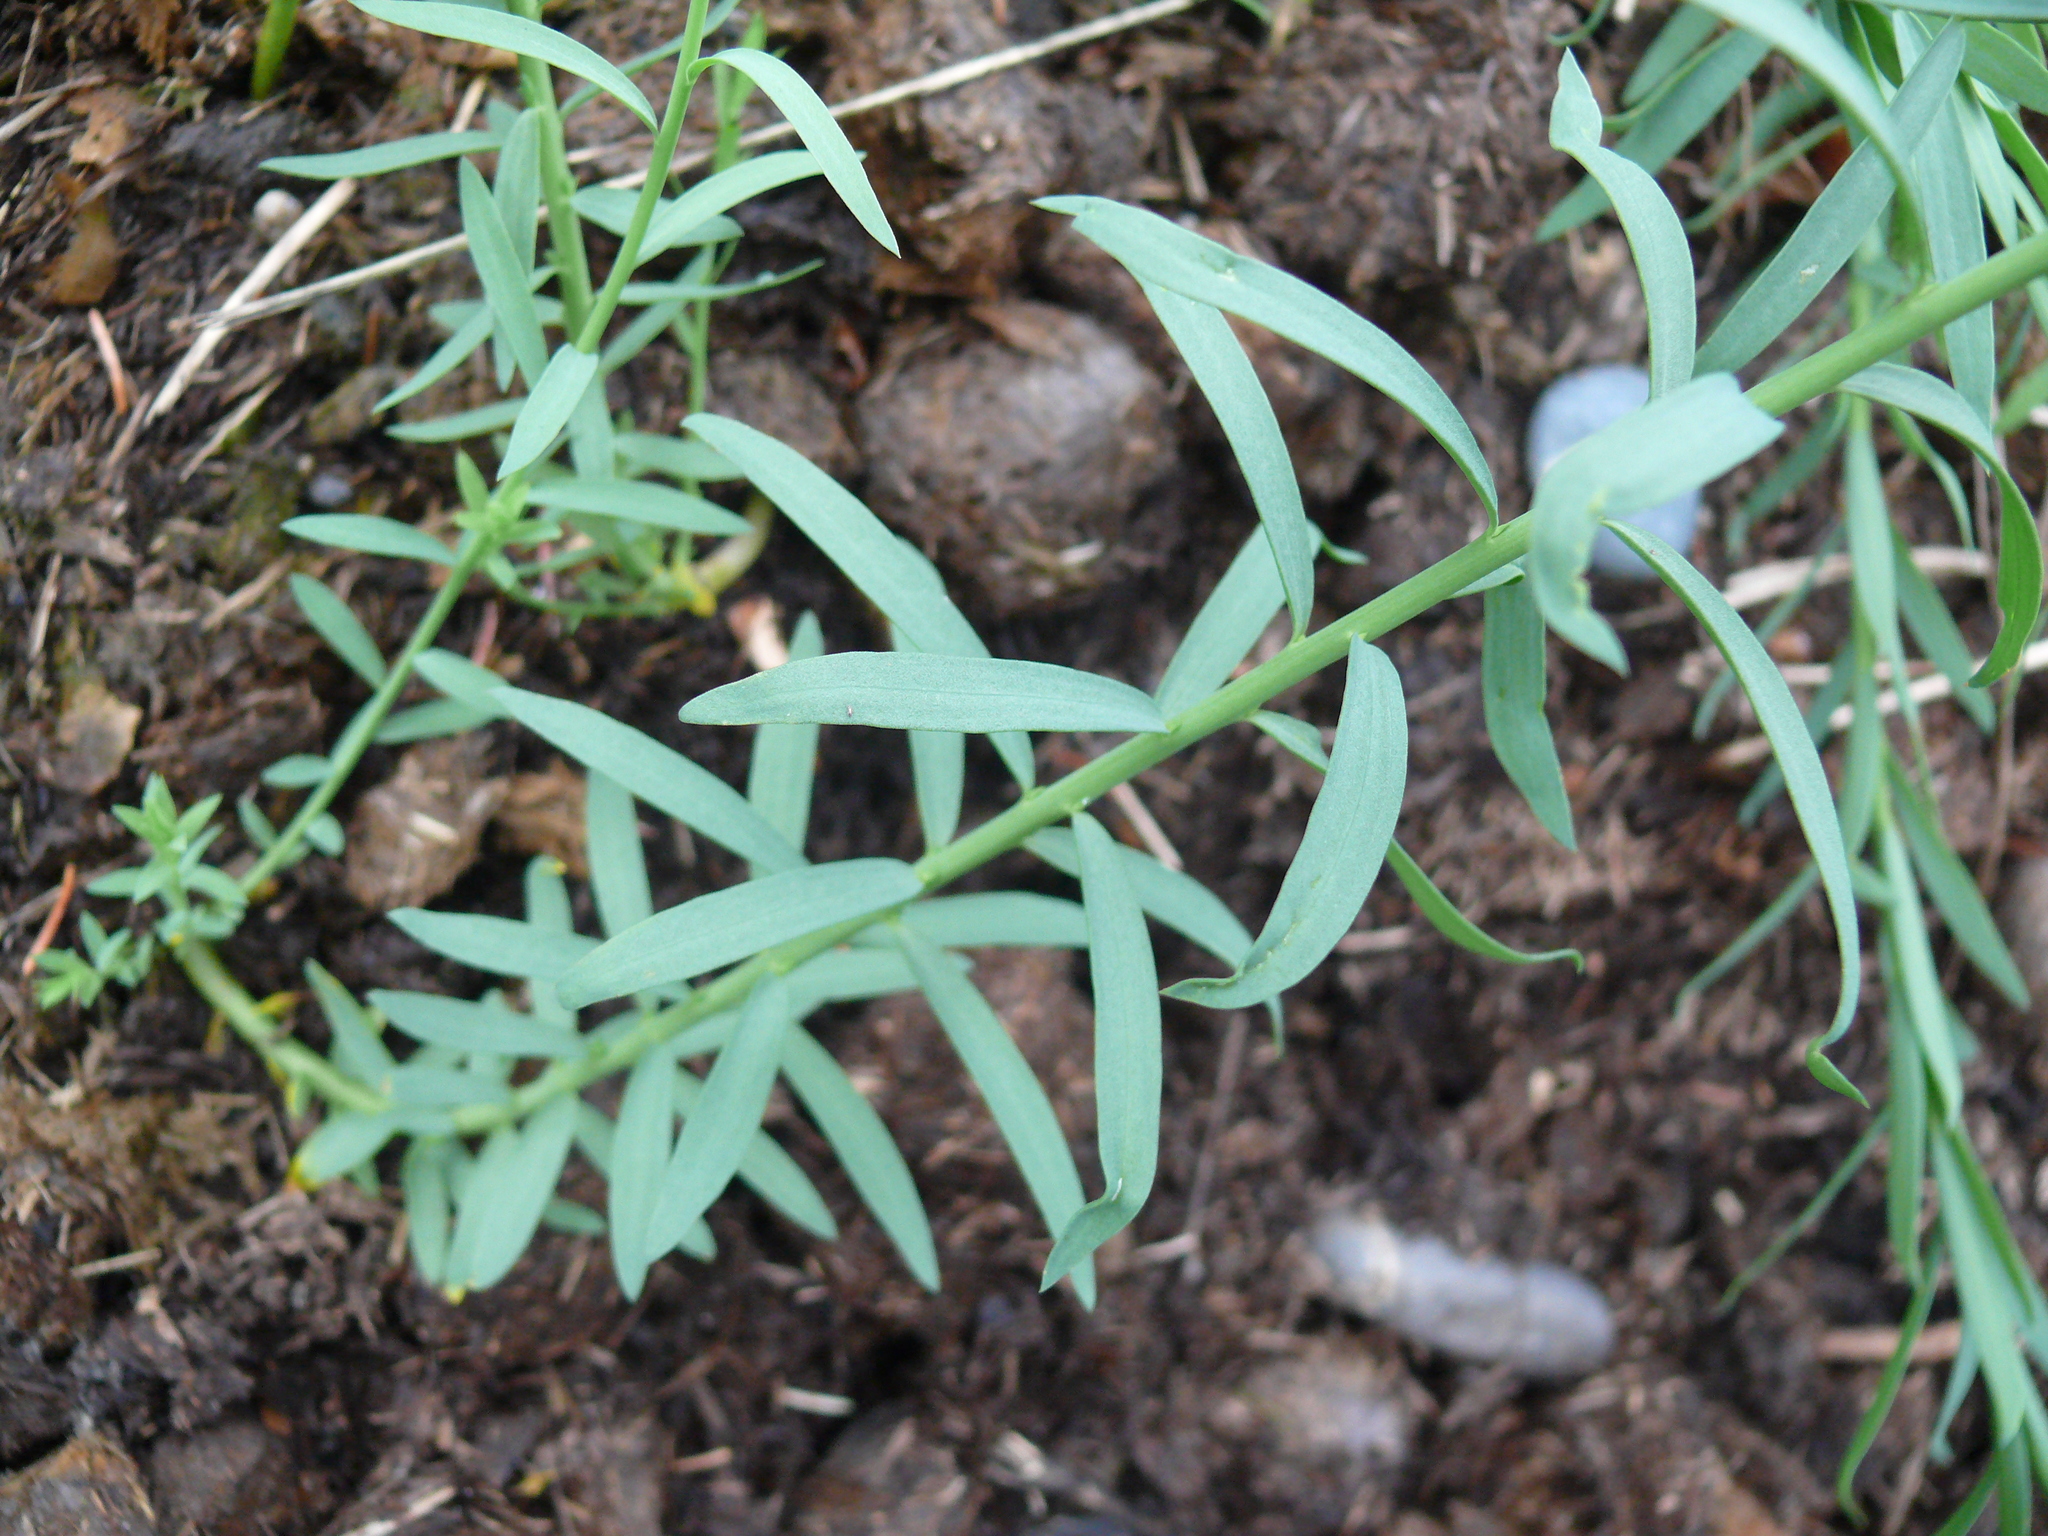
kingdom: Plantae
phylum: Tracheophyta
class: Magnoliopsida
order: Malpighiales
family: Linaceae
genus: Linum
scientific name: Linum lewisii
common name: Prairie flax
